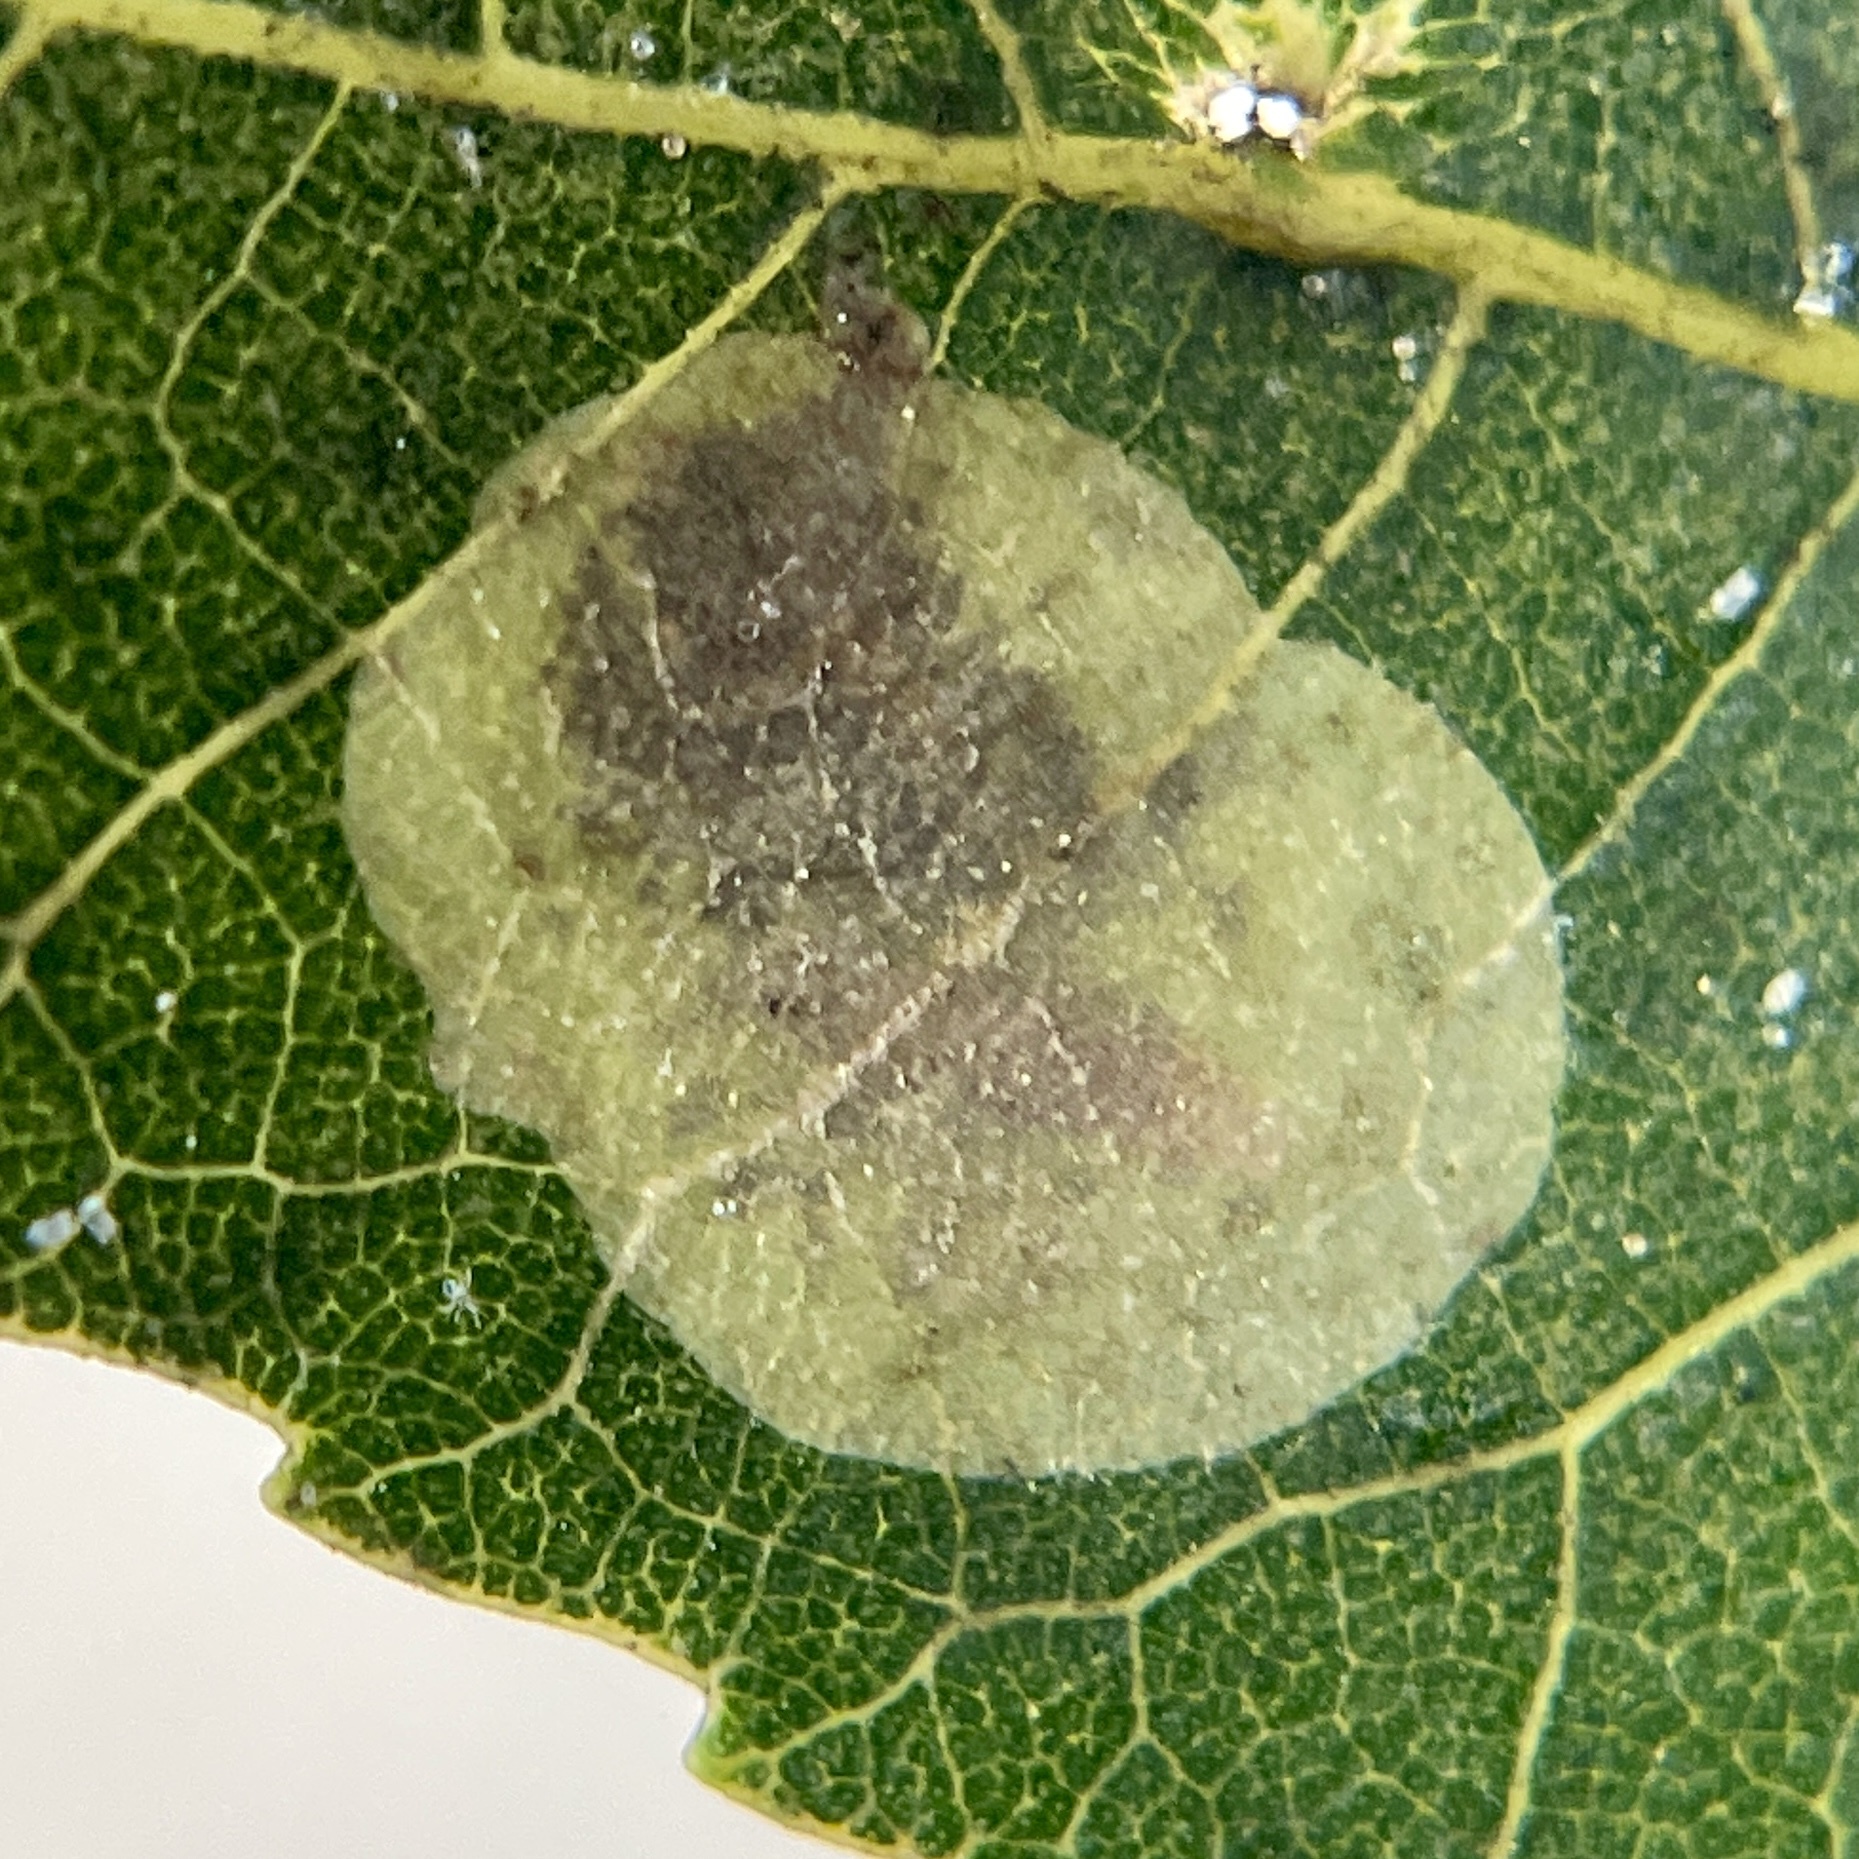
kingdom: Animalia
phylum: Arthropoda
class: Insecta
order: Lepidoptera
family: Gracillariidae
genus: Cameraria
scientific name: Cameraria caryaefoliella
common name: Pecan leafminer moth
